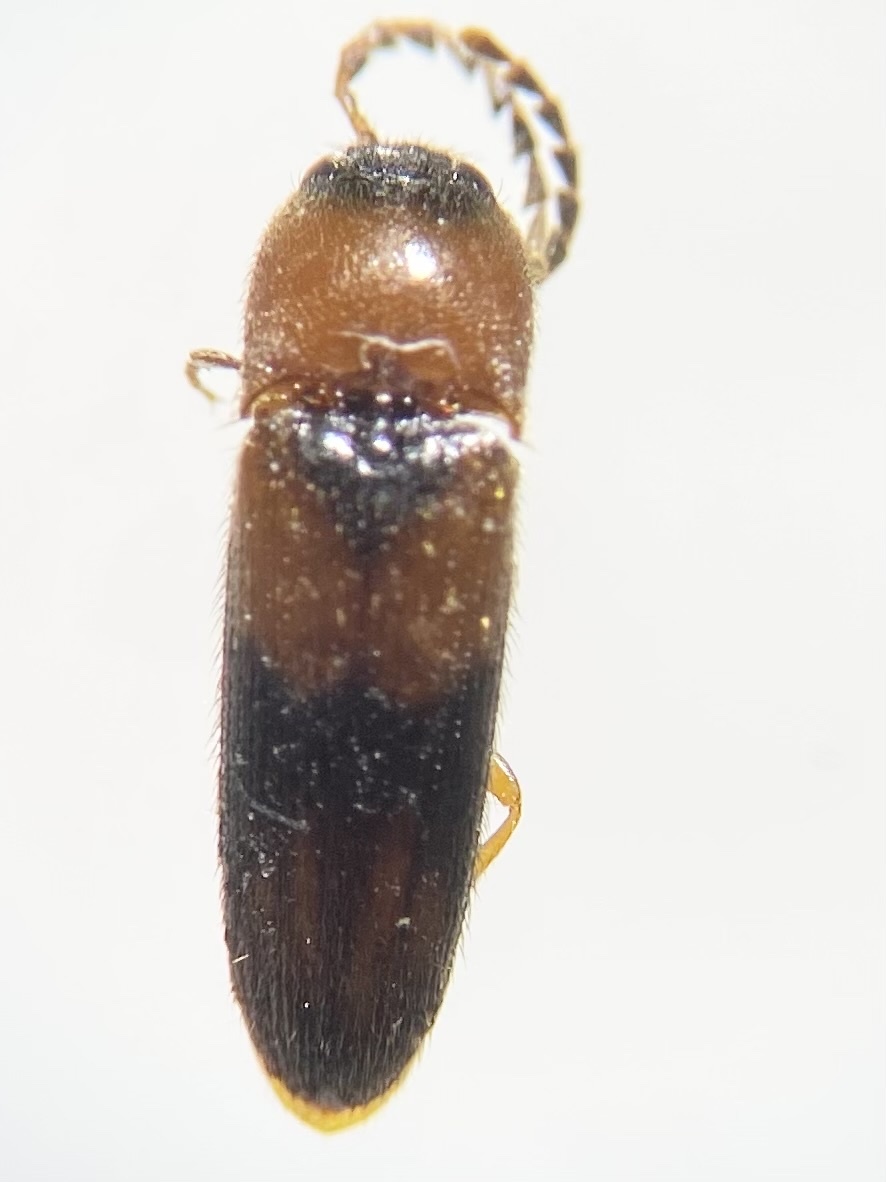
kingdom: Animalia
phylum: Arthropoda
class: Insecta
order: Coleoptera
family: Elateridae
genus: Ampedus
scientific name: Ampedus areolatus
